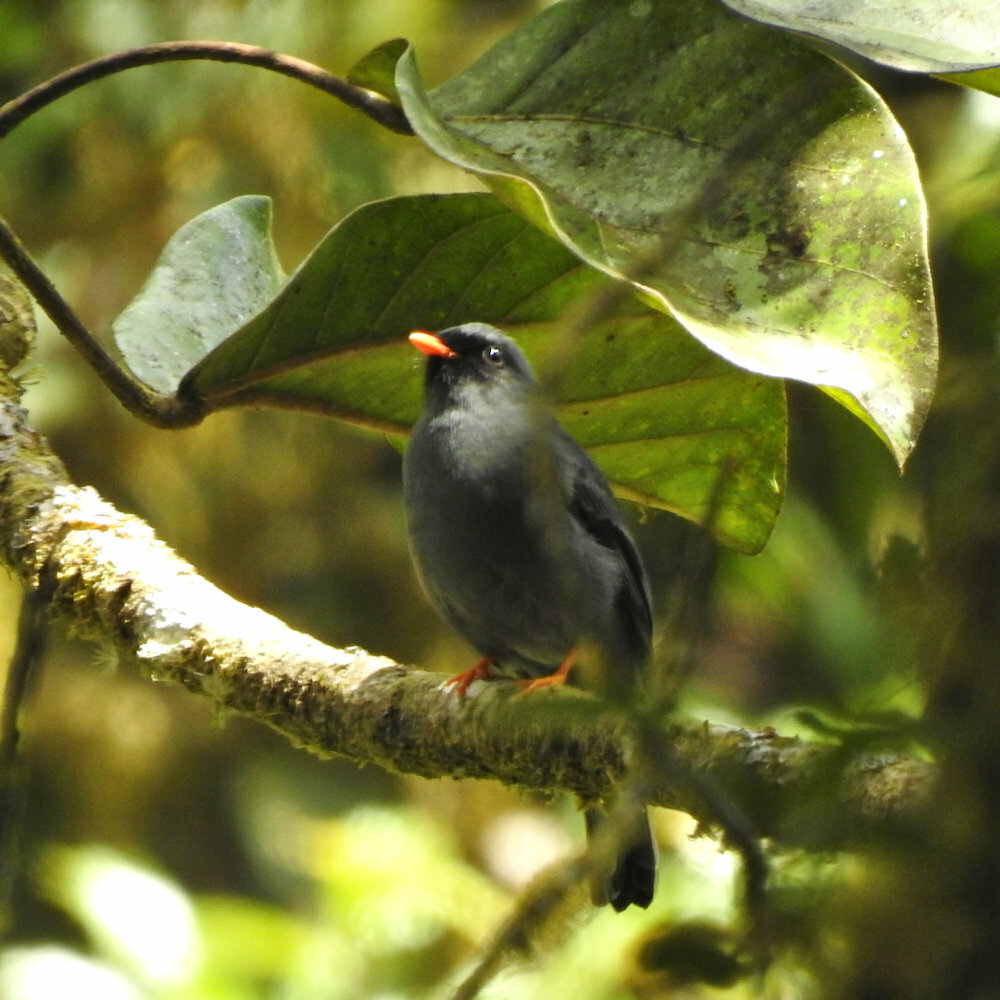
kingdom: Animalia
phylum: Chordata
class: Aves
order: Passeriformes
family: Turdidae
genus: Myadestes
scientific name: Myadestes melanops
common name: Black-faced solitaire
